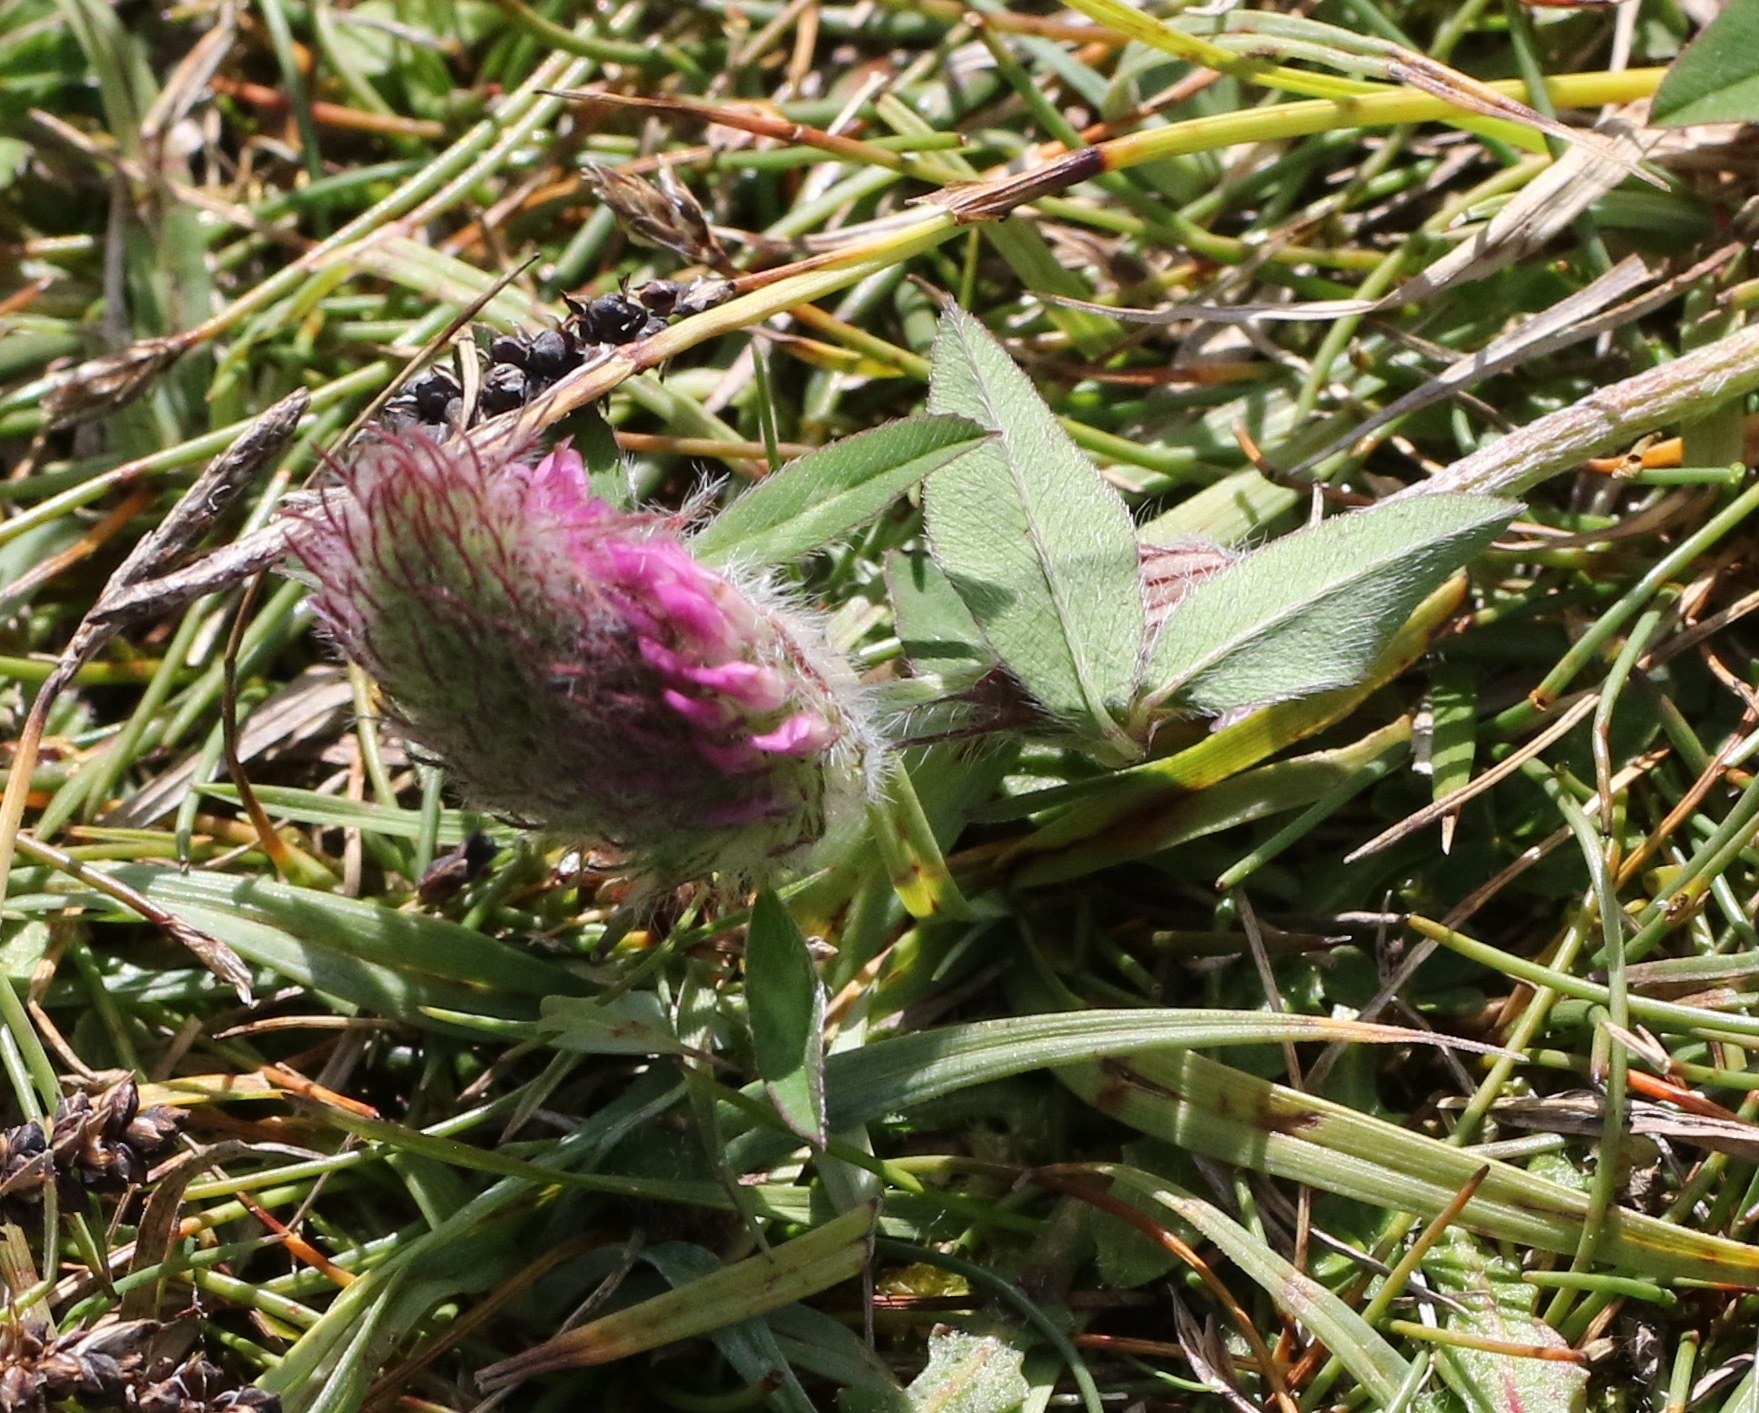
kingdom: Plantae
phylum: Tracheophyta
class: Magnoliopsida
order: Fabales
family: Fabaceae
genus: Trifolium
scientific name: Trifolium arvense
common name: Hare's-foot clover
